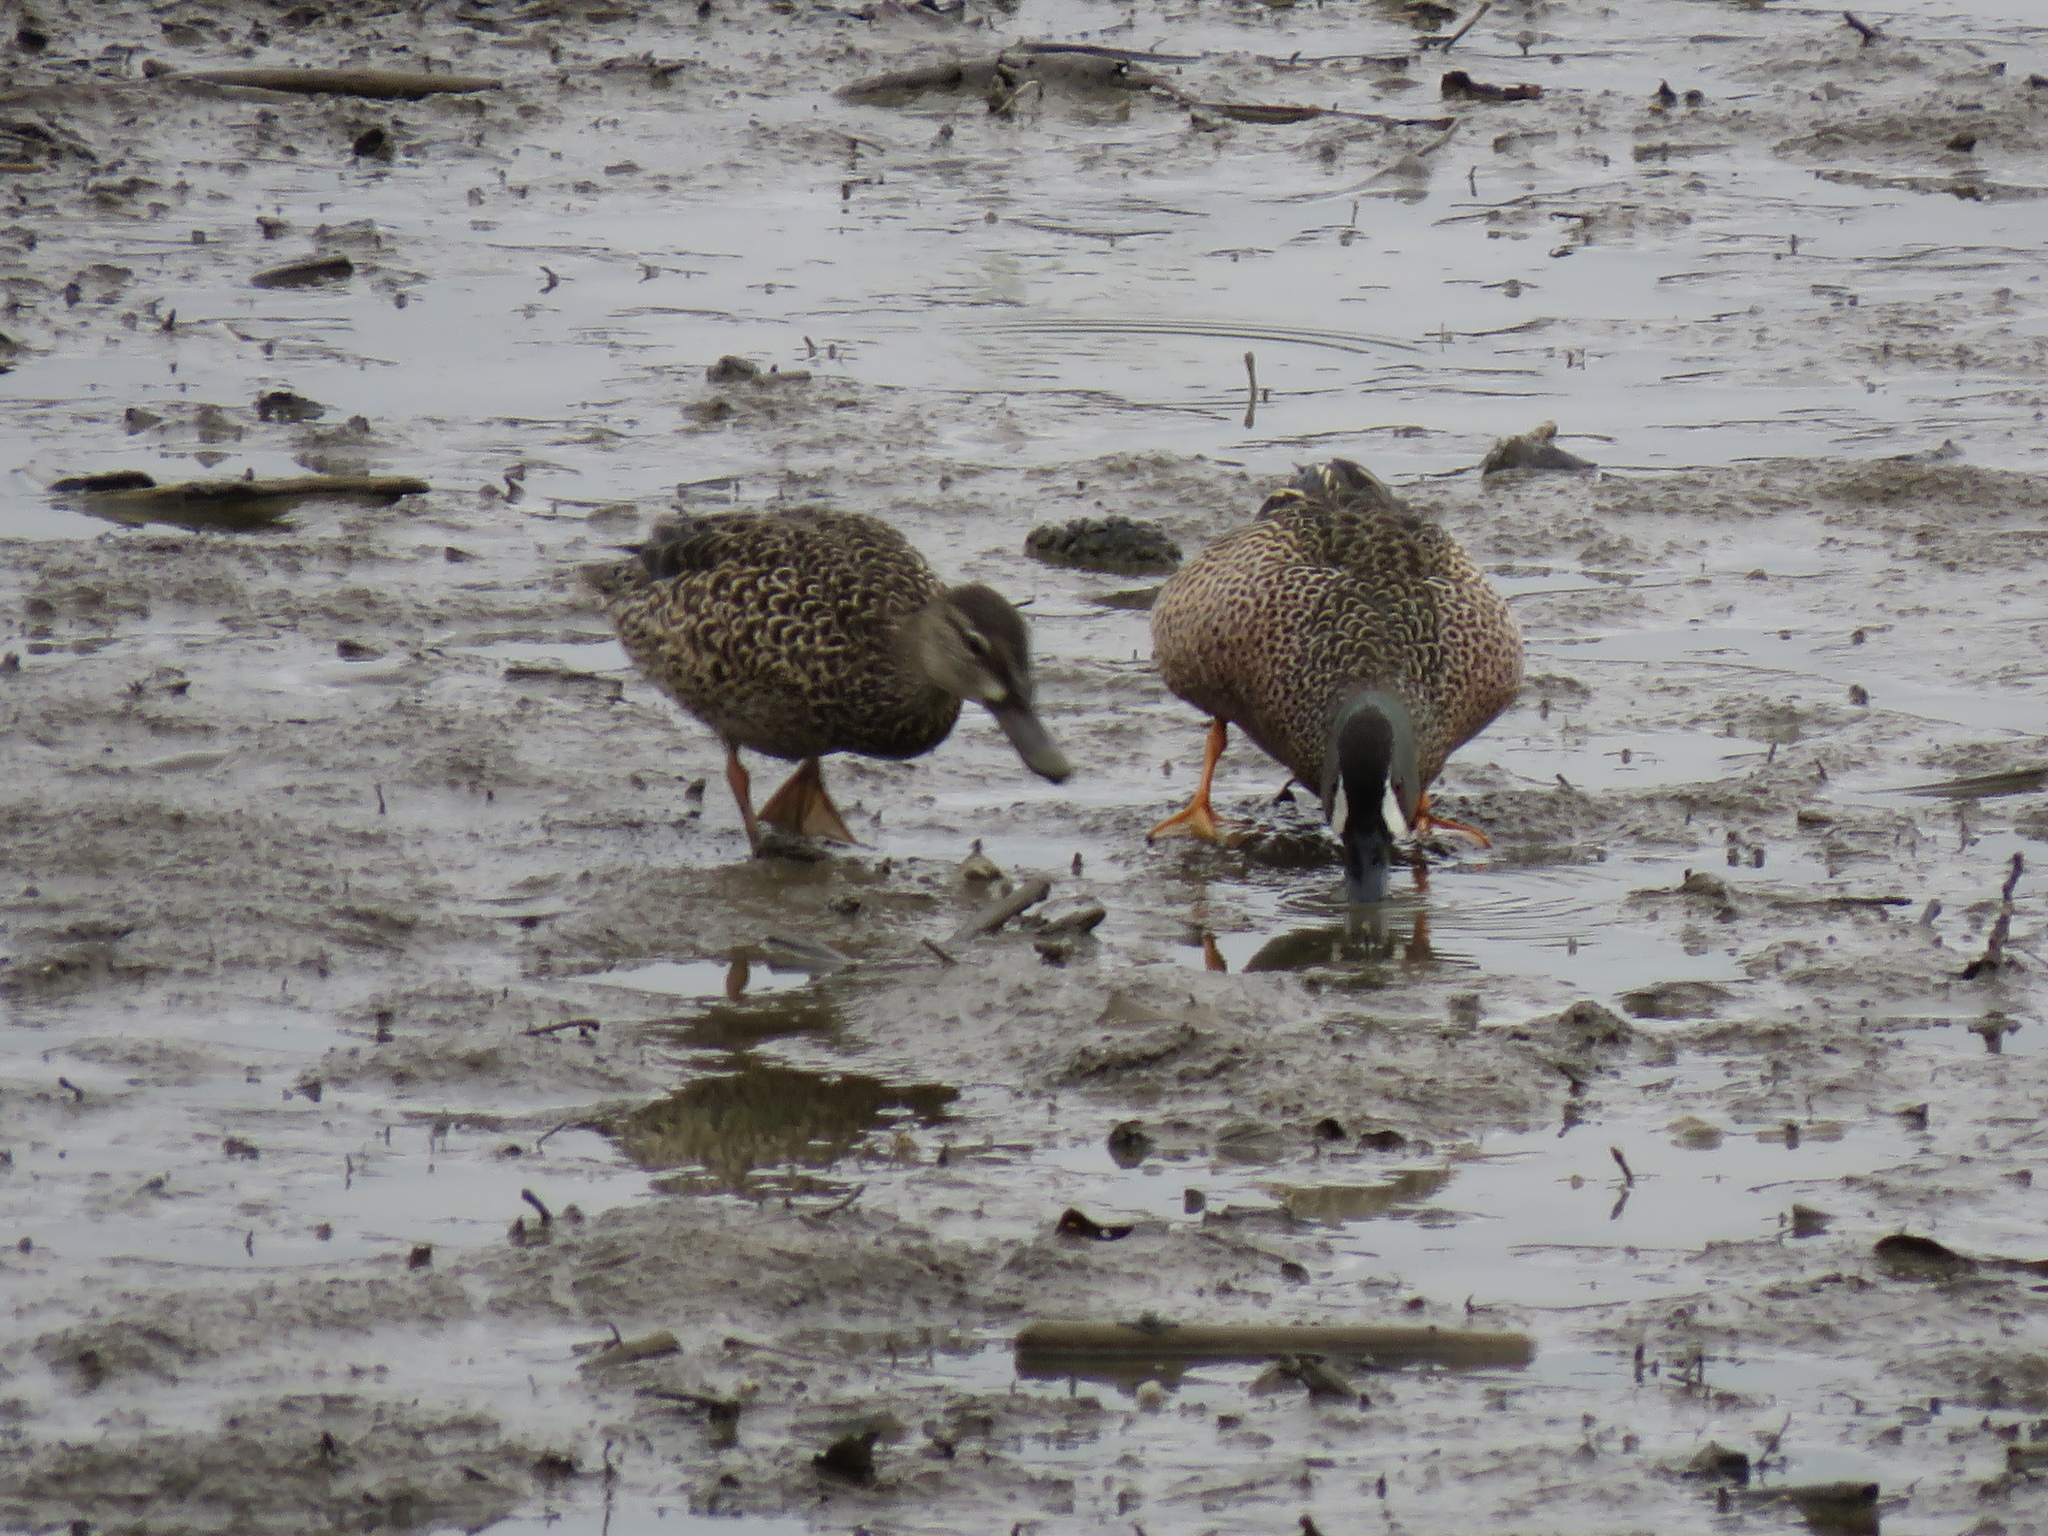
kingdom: Animalia
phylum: Chordata
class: Aves
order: Anseriformes
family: Anatidae
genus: Spatula
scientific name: Spatula discors
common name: Blue-winged teal
